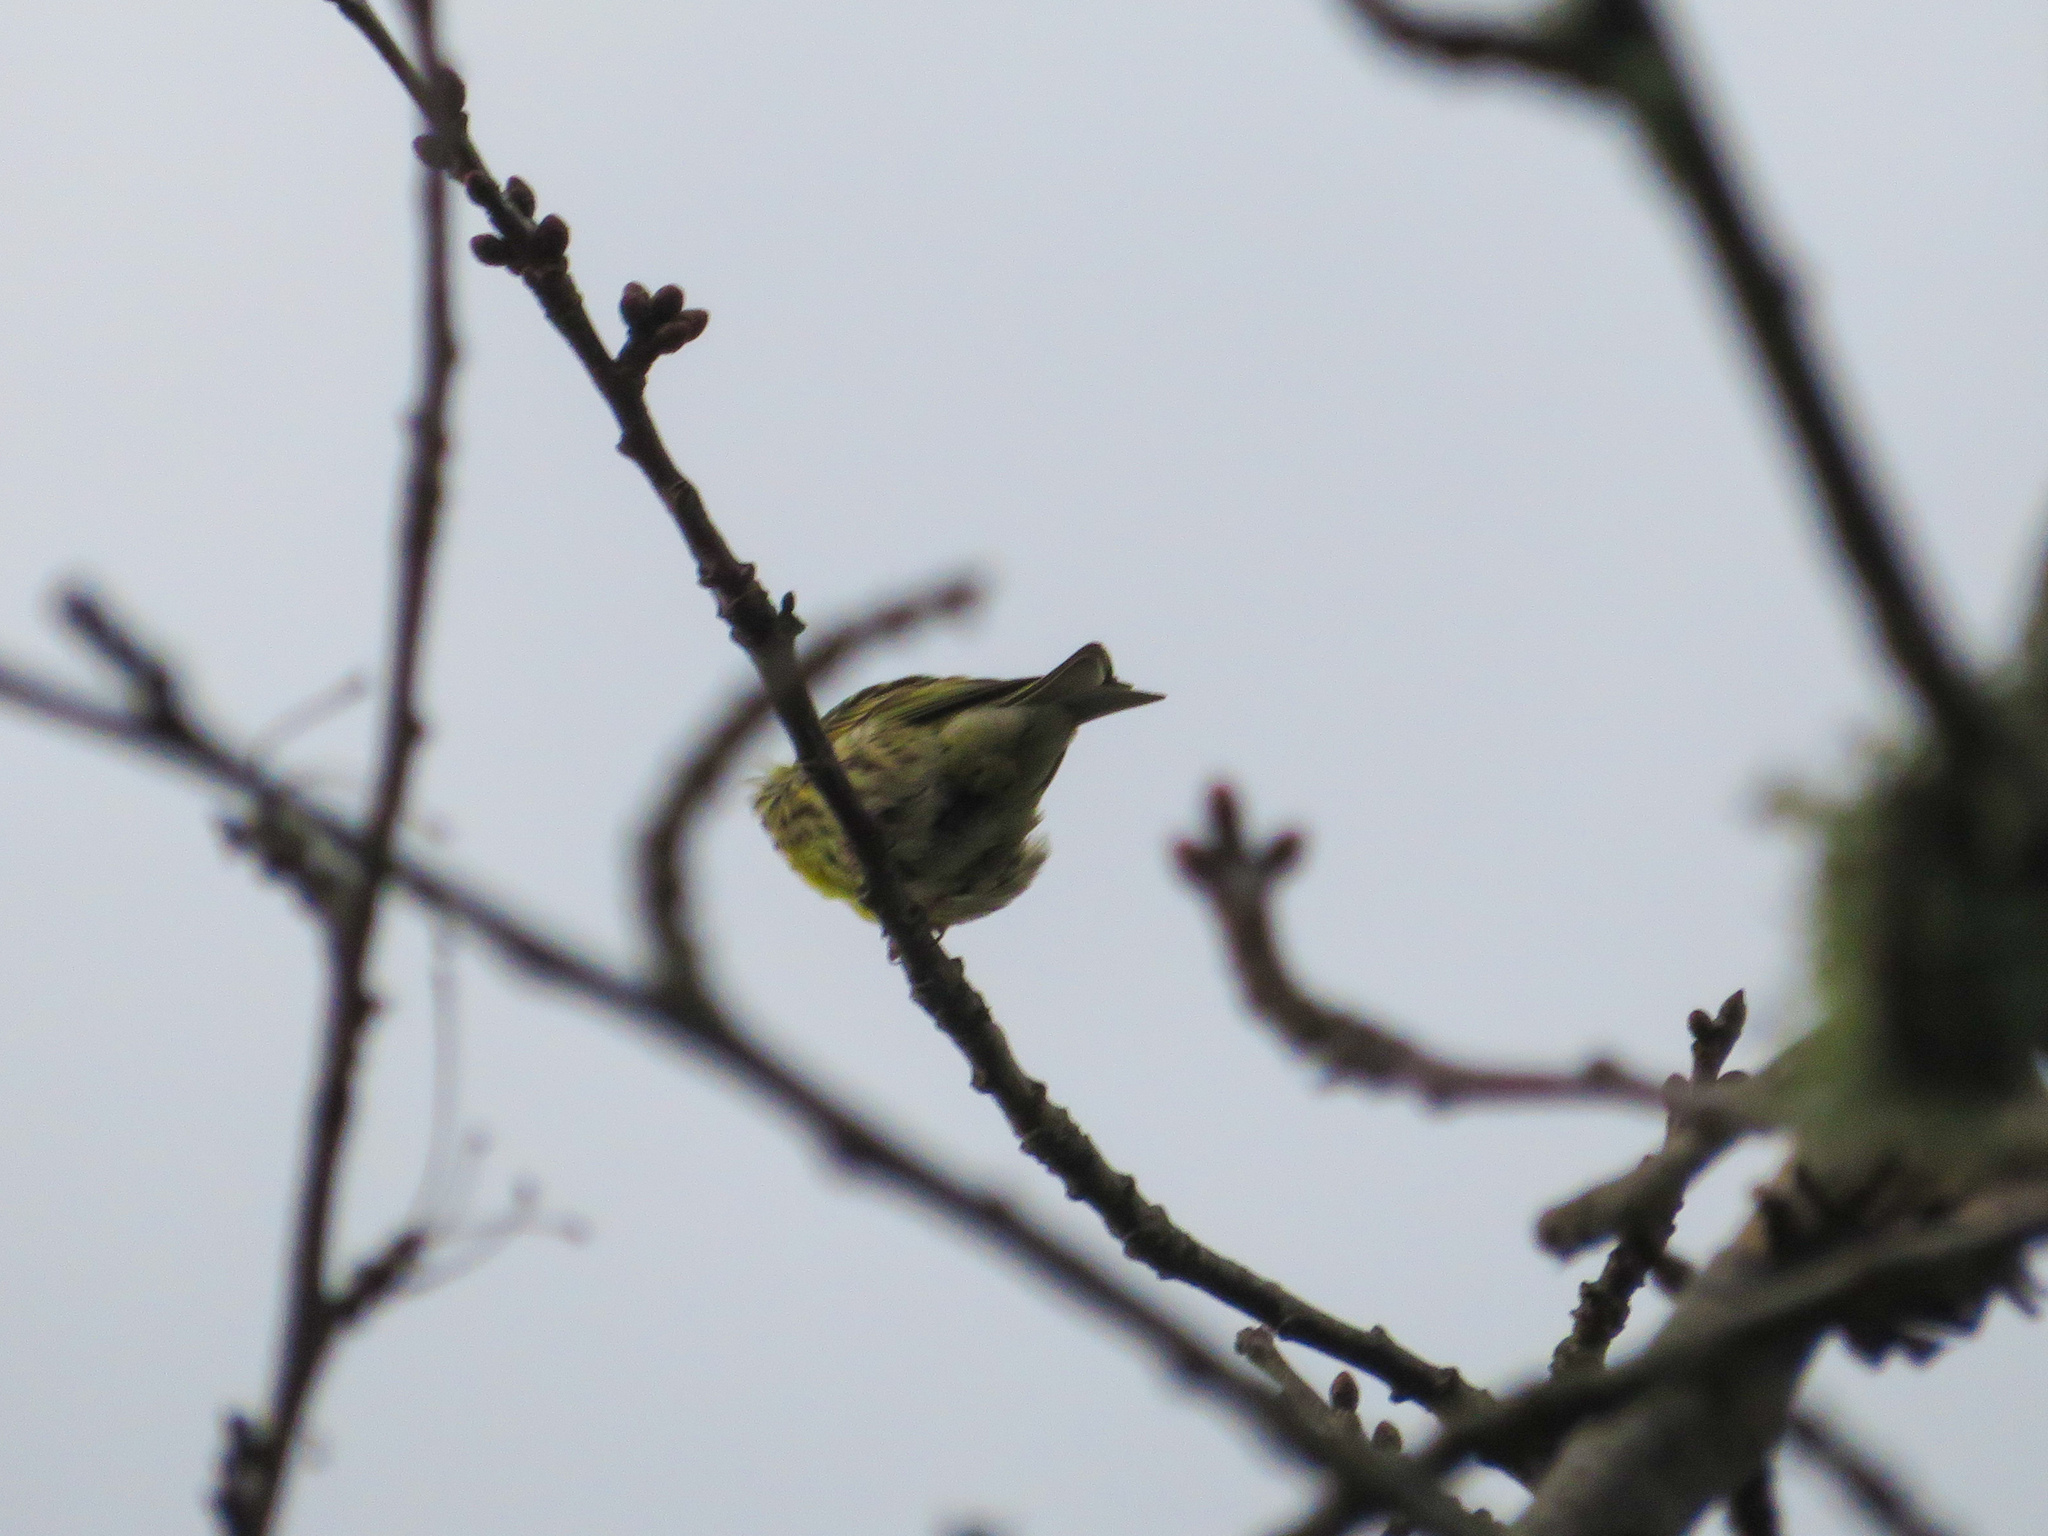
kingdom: Animalia
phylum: Chordata
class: Aves
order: Passeriformes
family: Fringillidae
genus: Serinus
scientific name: Serinus serinus
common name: European serin
